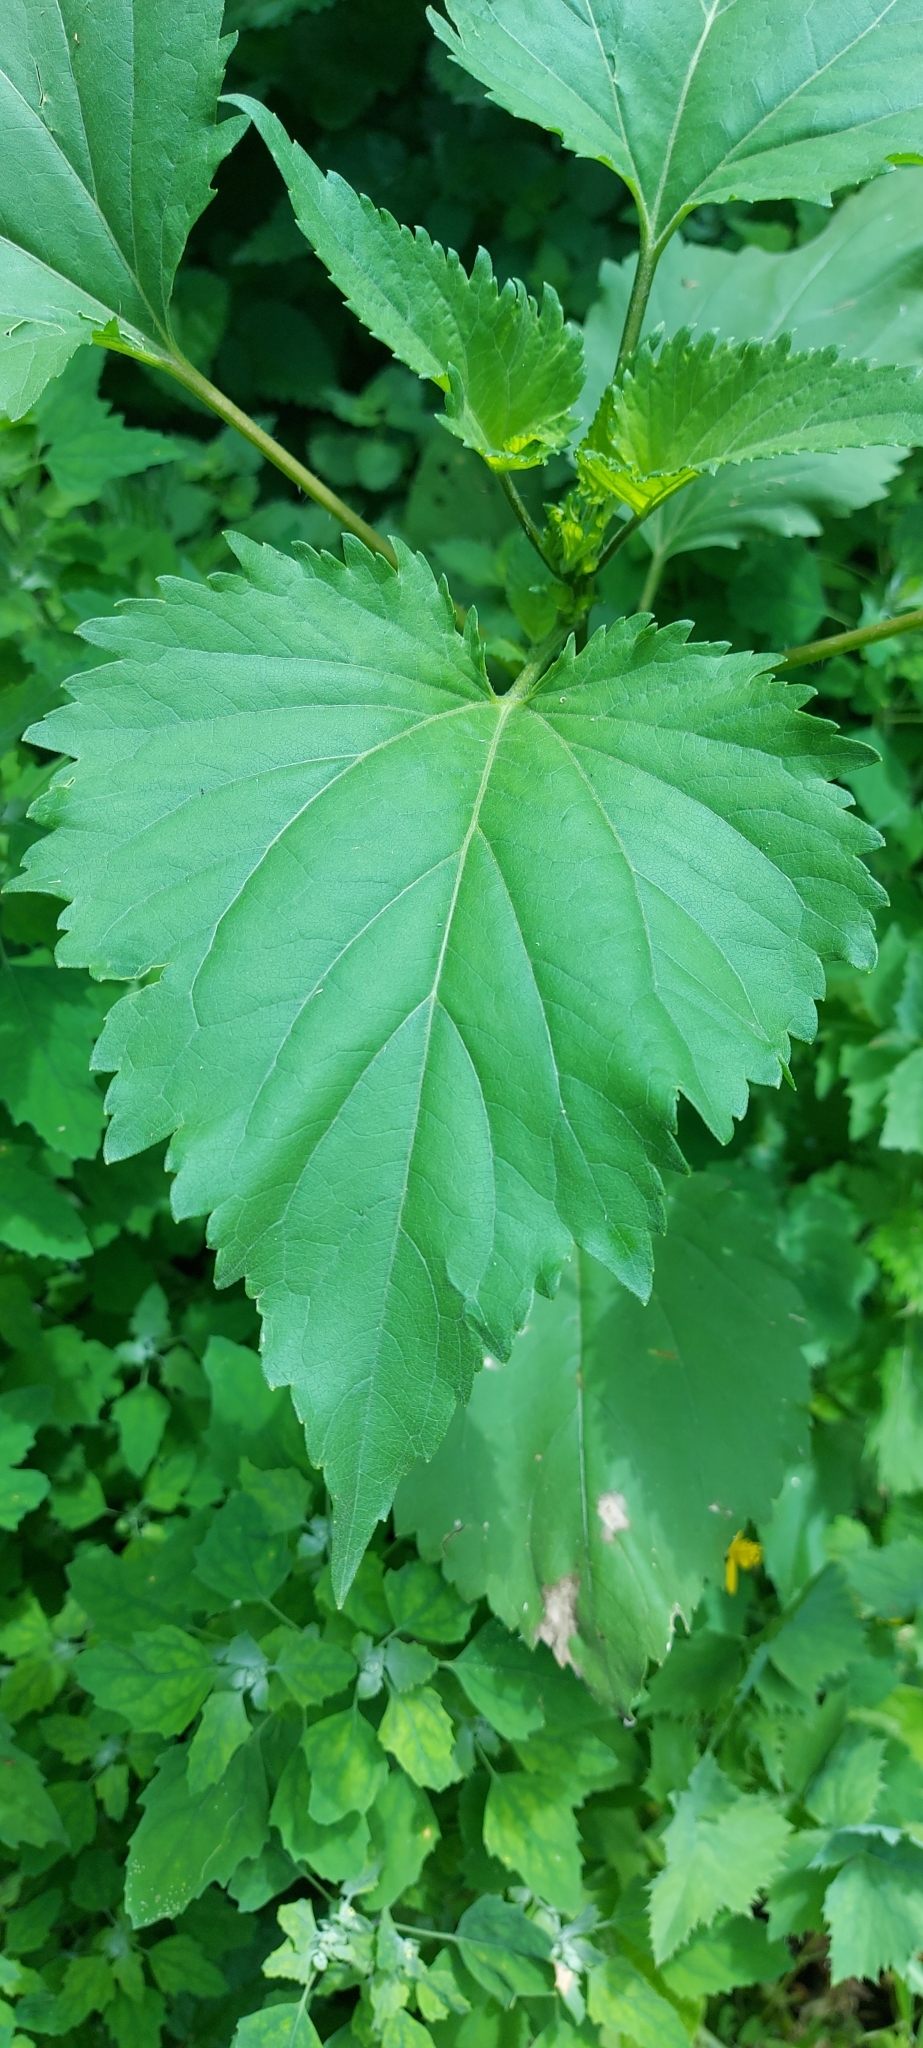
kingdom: Plantae
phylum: Tracheophyta
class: Magnoliopsida
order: Asterales
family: Asteraceae
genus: Cyclachaena
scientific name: Cyclachaena xanthiifolia
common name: Giant sumpweed
